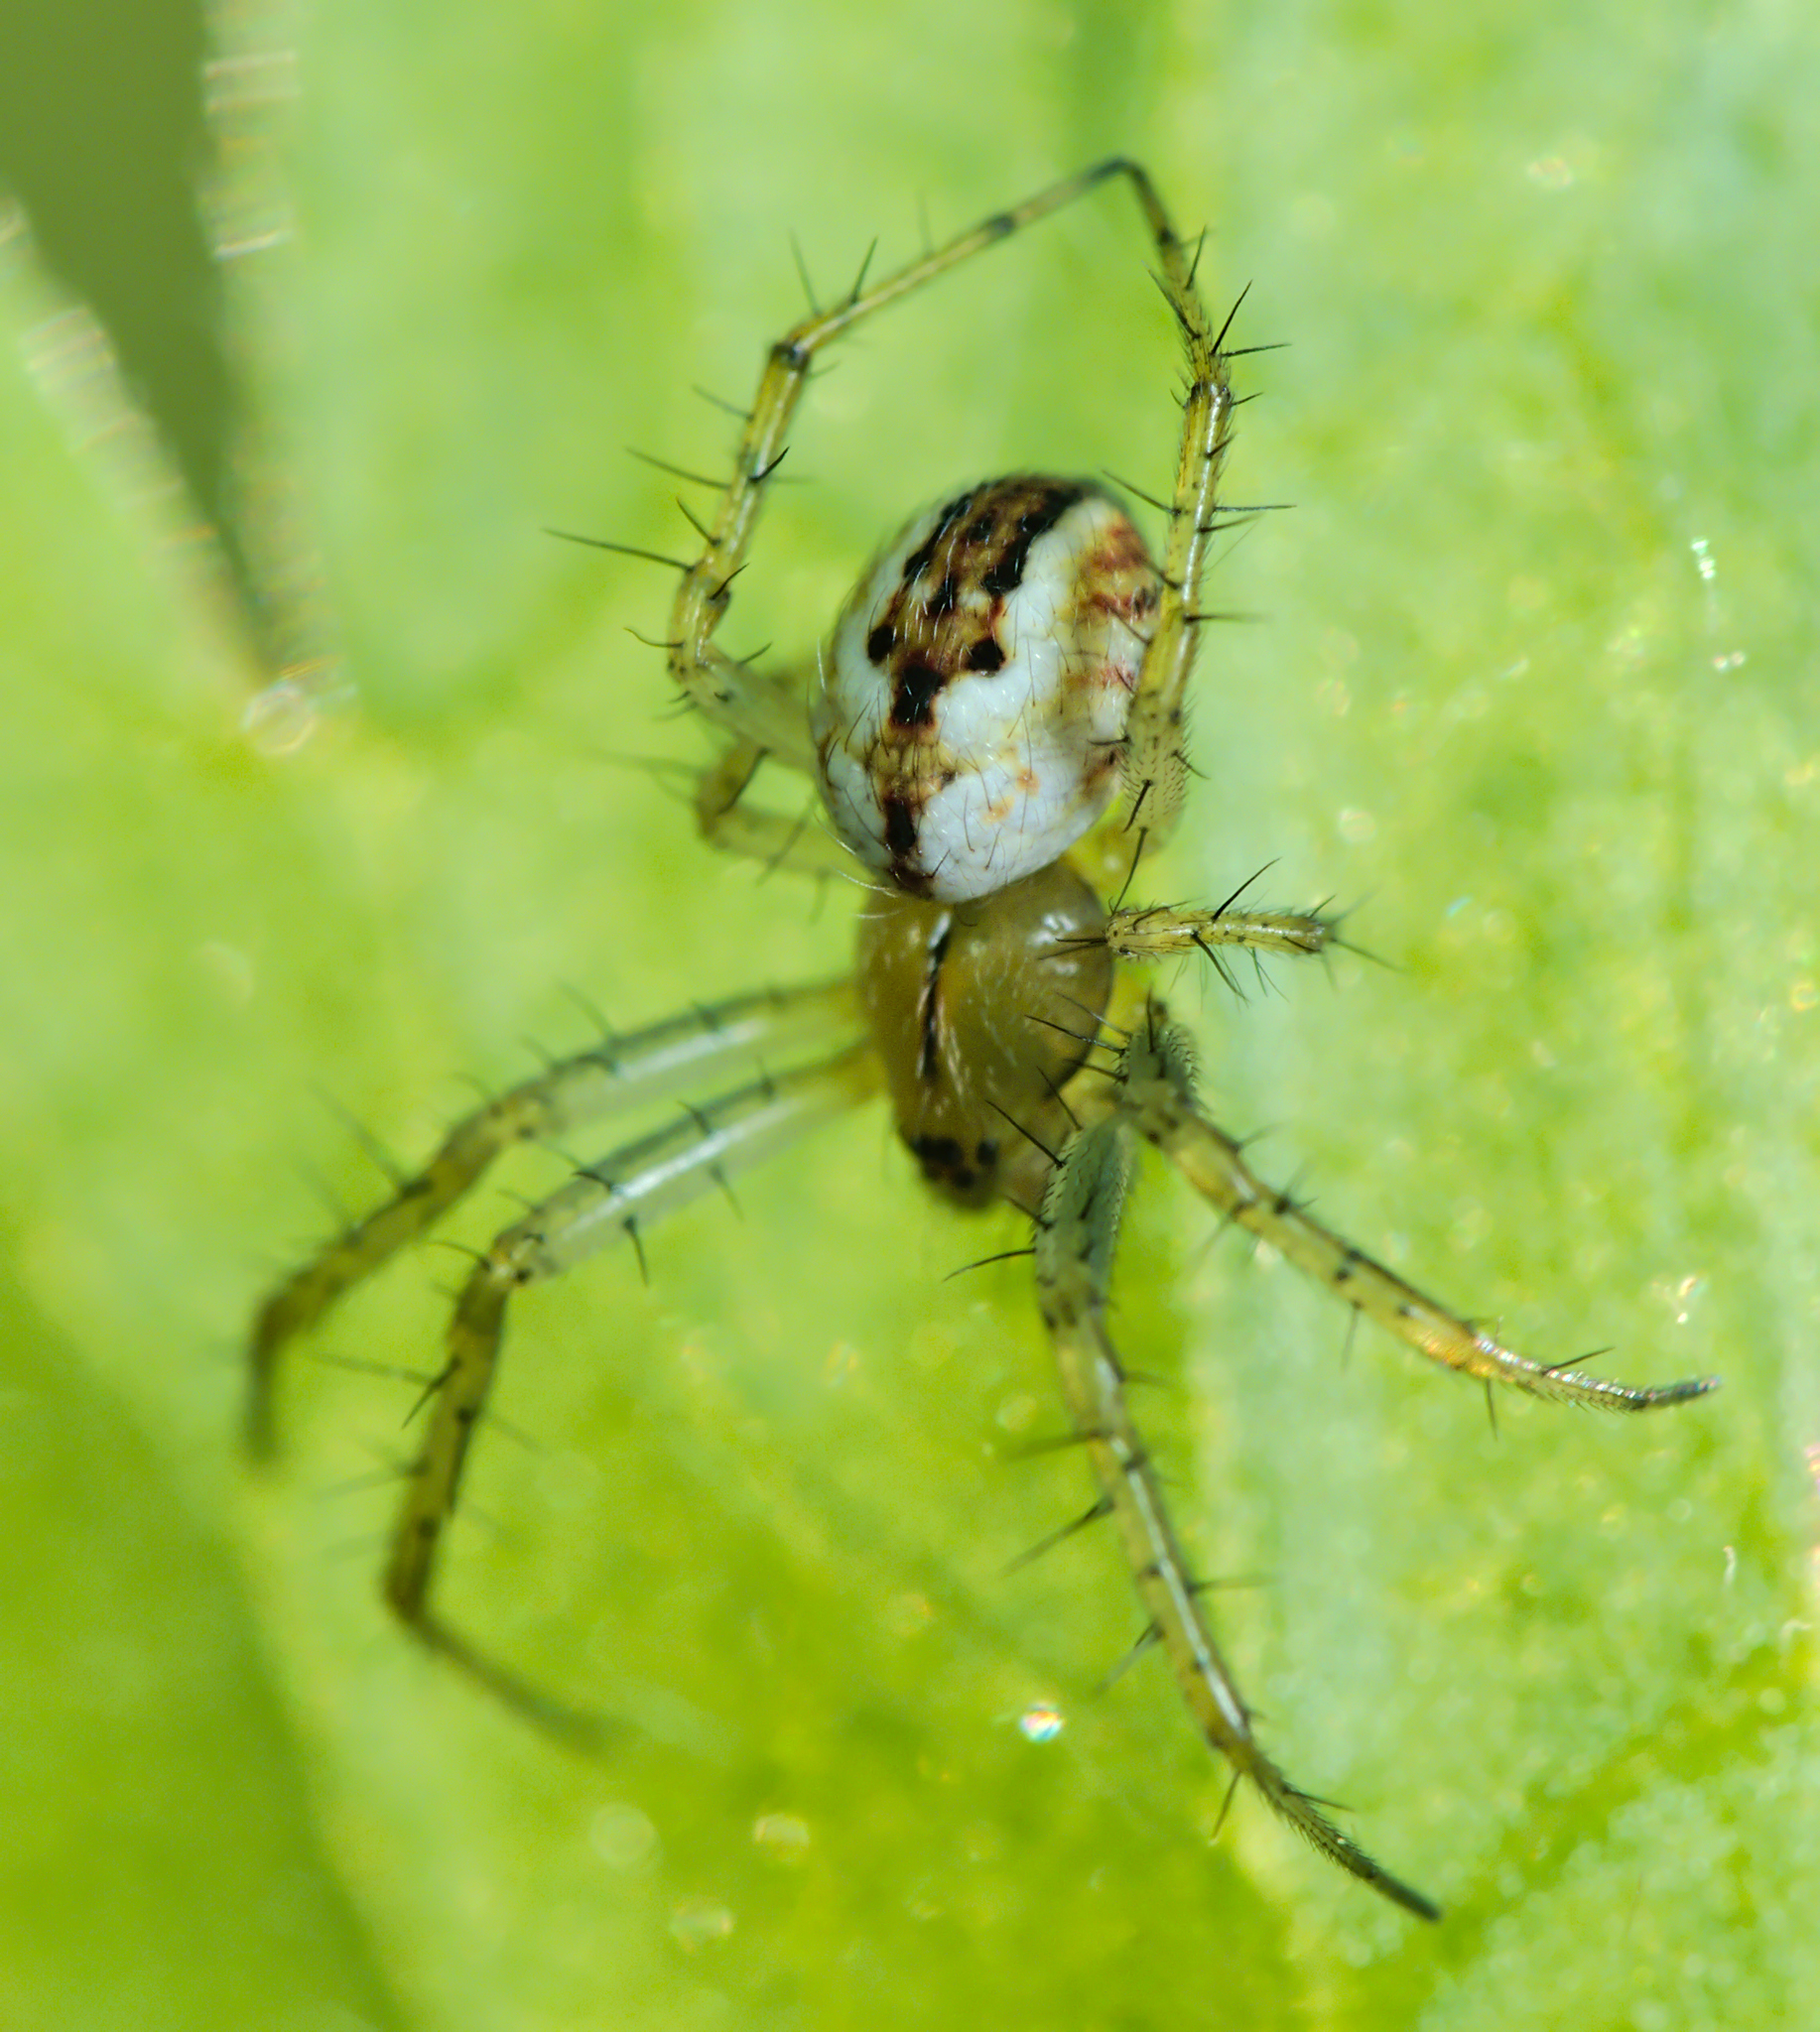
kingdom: Animalia
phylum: Arthropoda
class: Arachnida
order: Araneae
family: Araneidae
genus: Mangora
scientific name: Mangora acalypha
